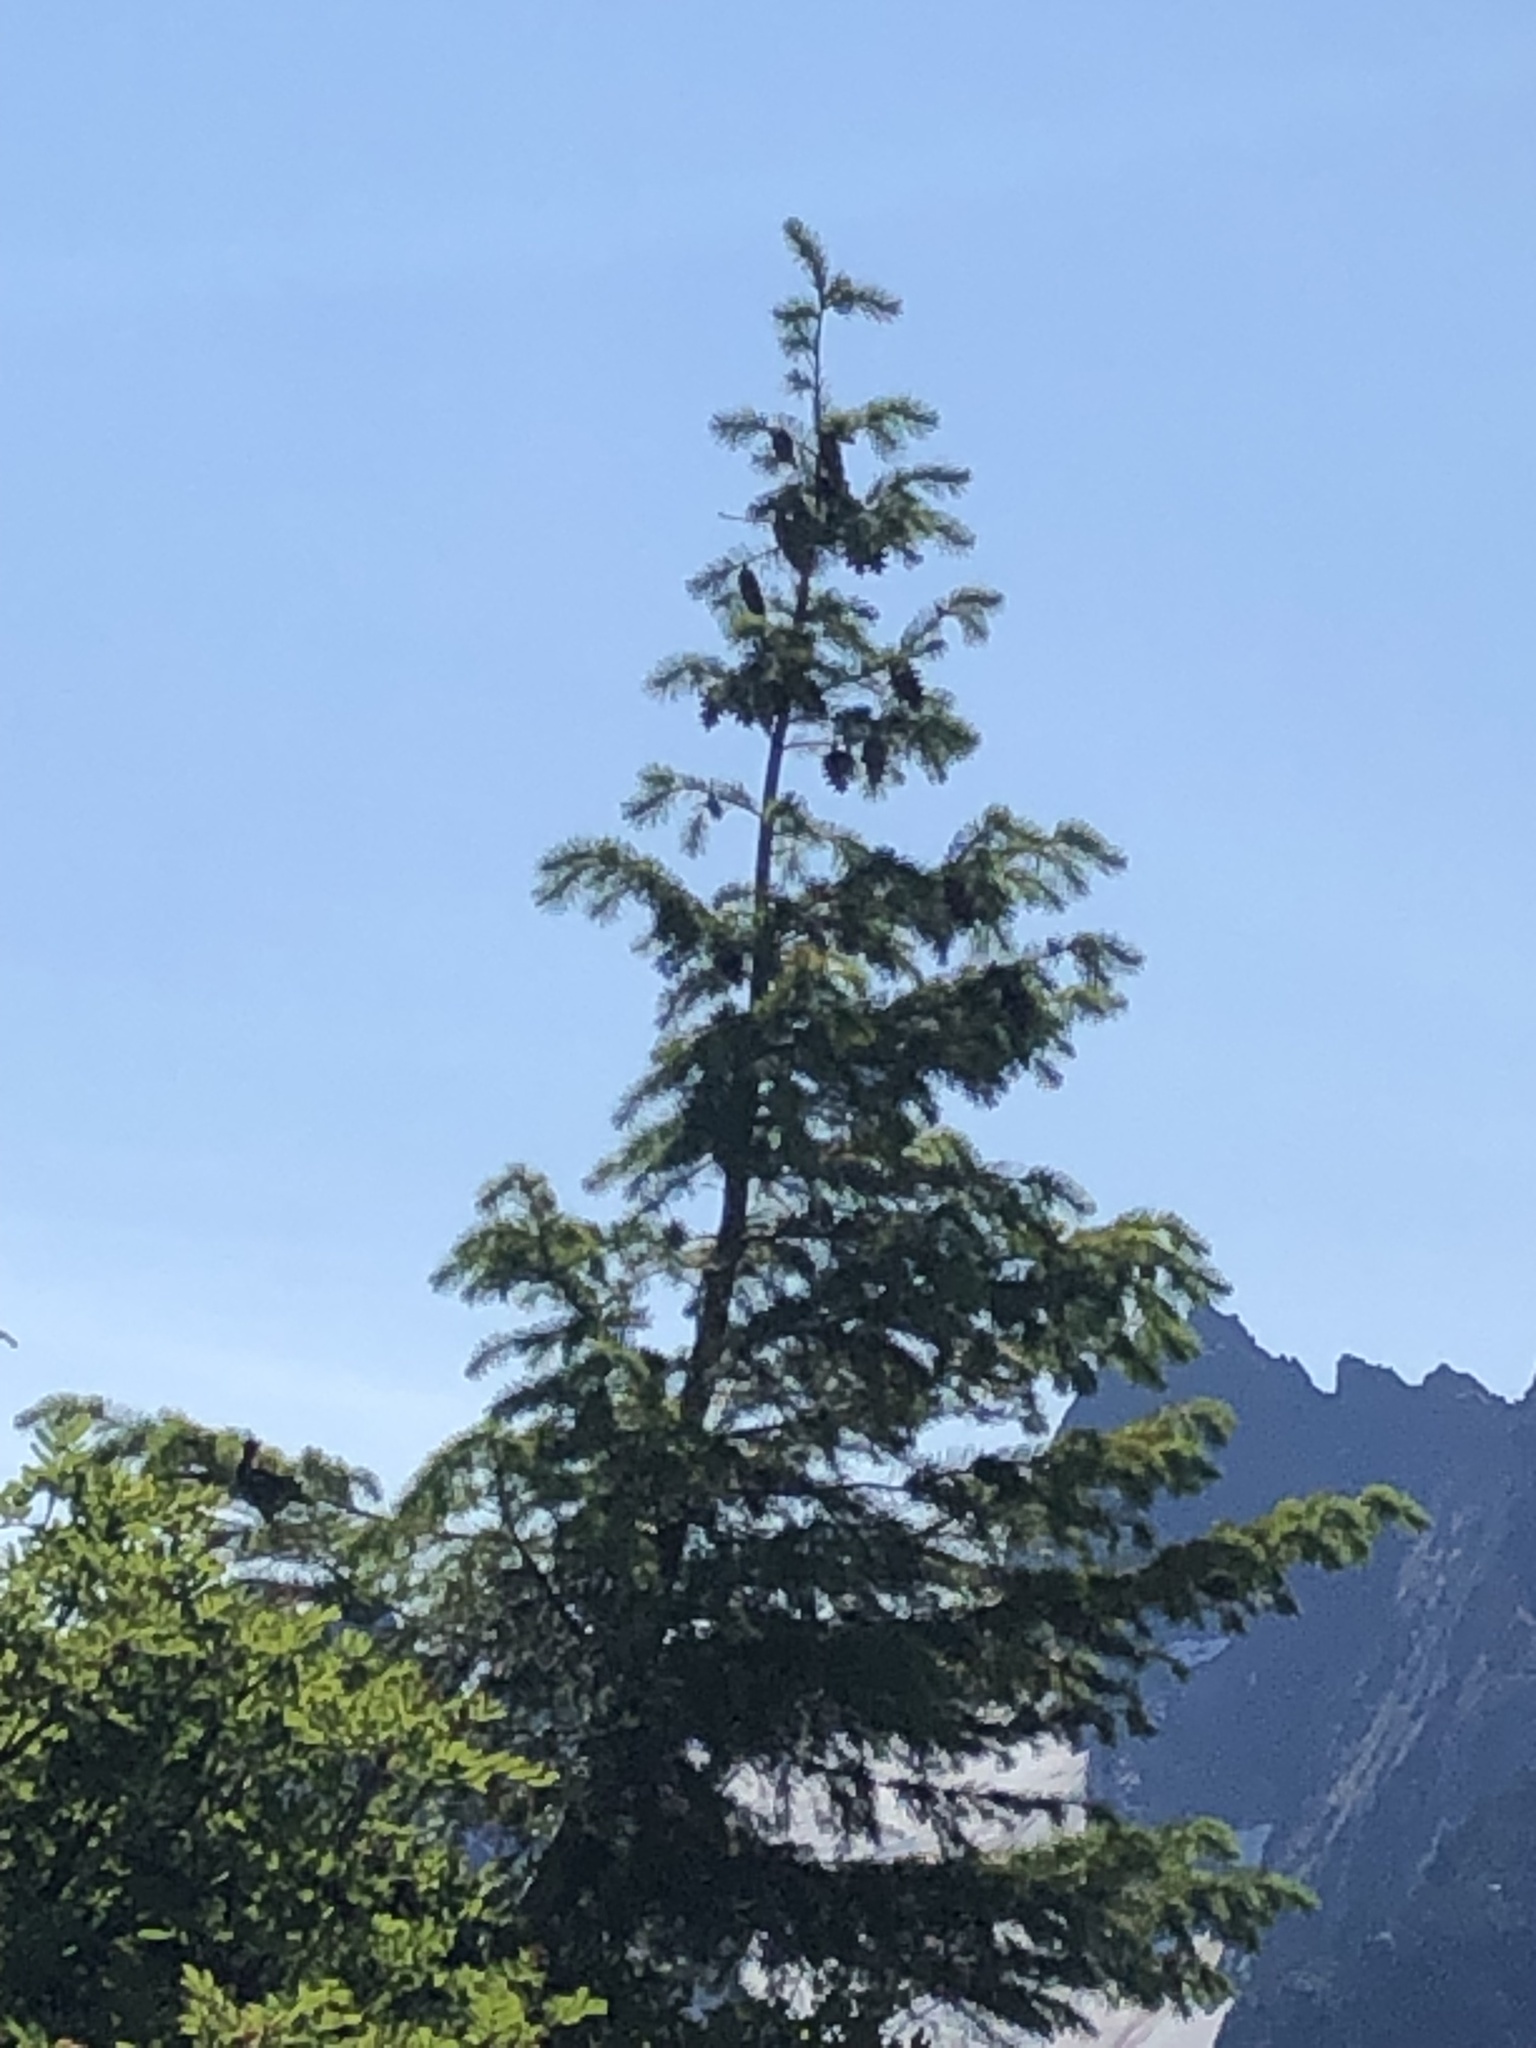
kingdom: Plantae
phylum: Tracheophyta
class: Pinopsida
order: Pinales
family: Pinaceae
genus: Pseudotsuga
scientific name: Pseudotsuga menziesii
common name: Douglas fir
